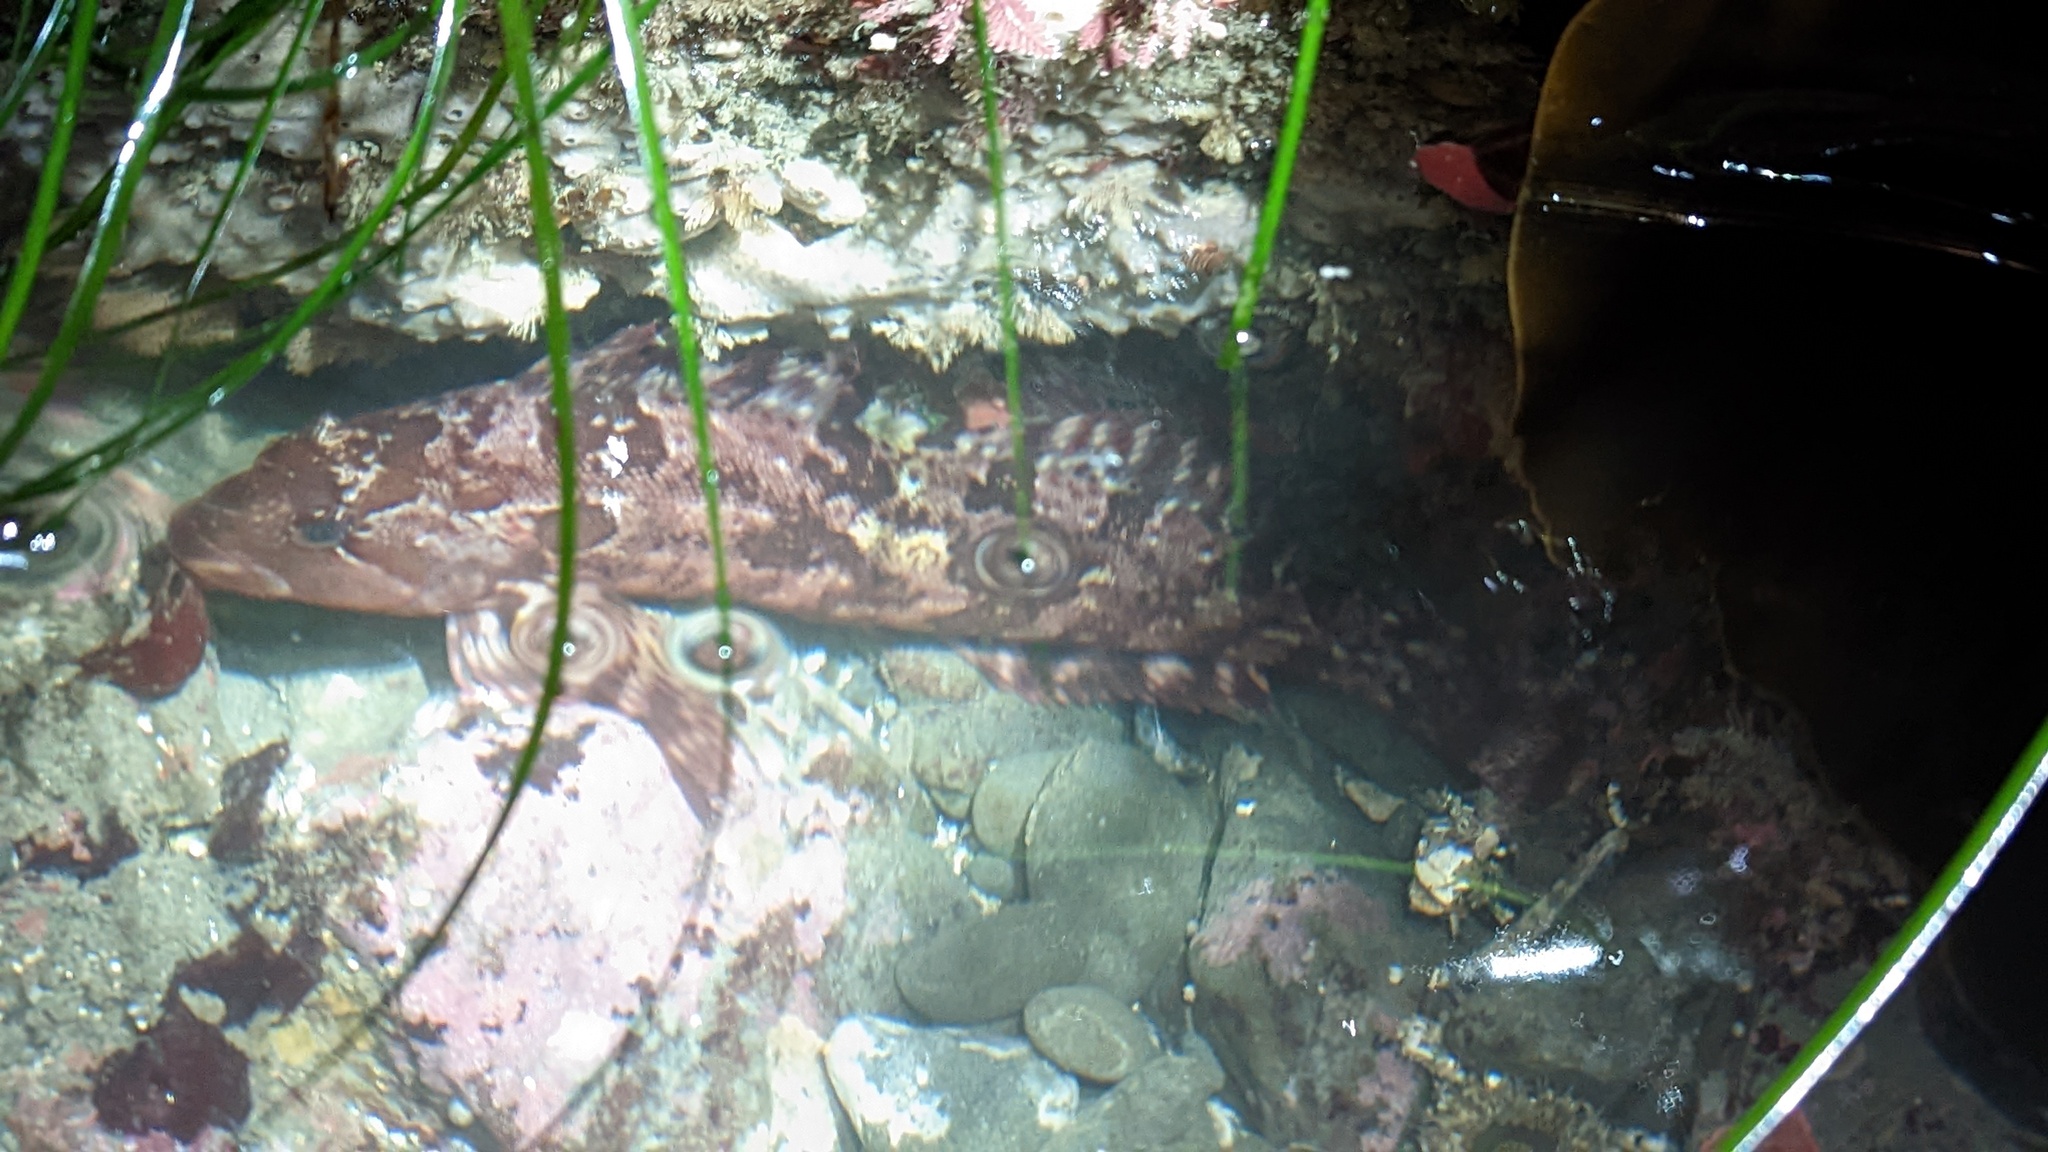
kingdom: Animalia
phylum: Chordata
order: Scorpaeniformes
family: Hexagrammidae
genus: Hexagrammos
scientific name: Hexagrammos lagocephalus
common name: Rock greenling
